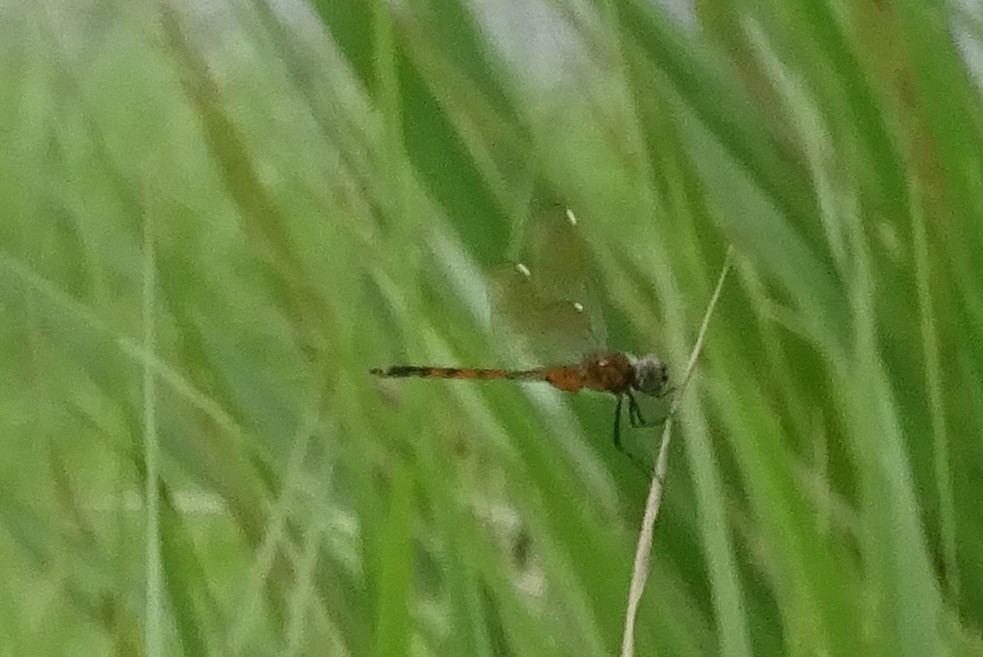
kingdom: Animalia
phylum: Arthropoda
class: Insecta
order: Odonata
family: Libellulidae
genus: Brachymesia
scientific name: Brachymesia gravida
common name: Four-spotted pennant
